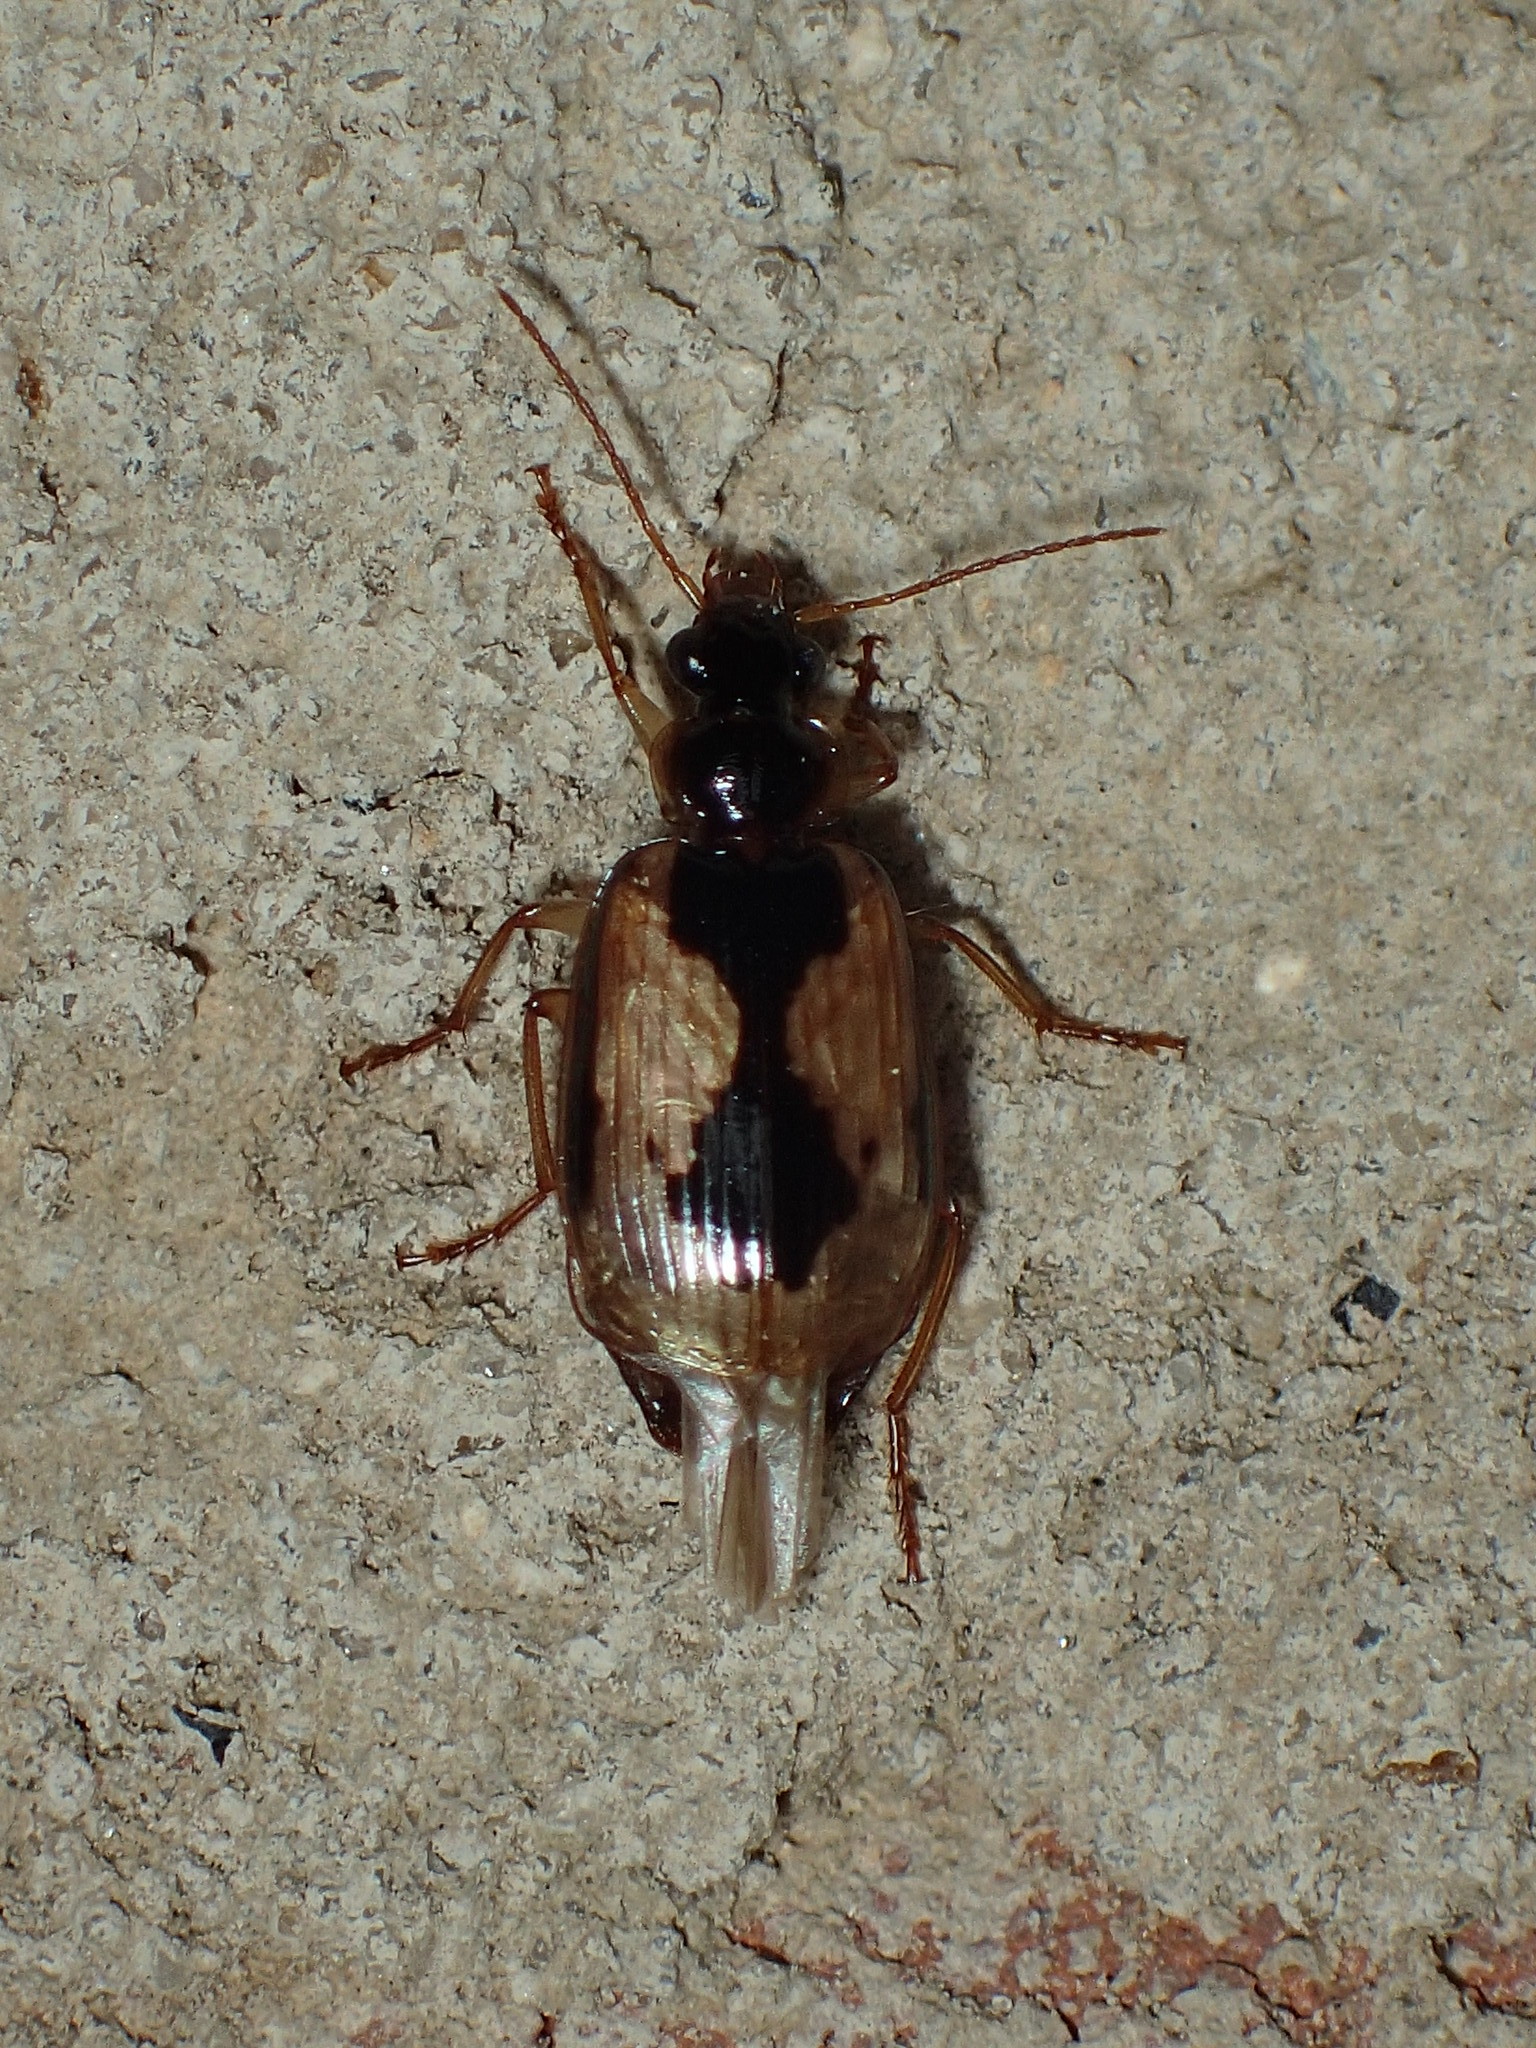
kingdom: Animalia
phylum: Arthropoda
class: Insecta
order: Coleoptera
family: Carabidae
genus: Lebia
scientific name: Lebia fuscata
